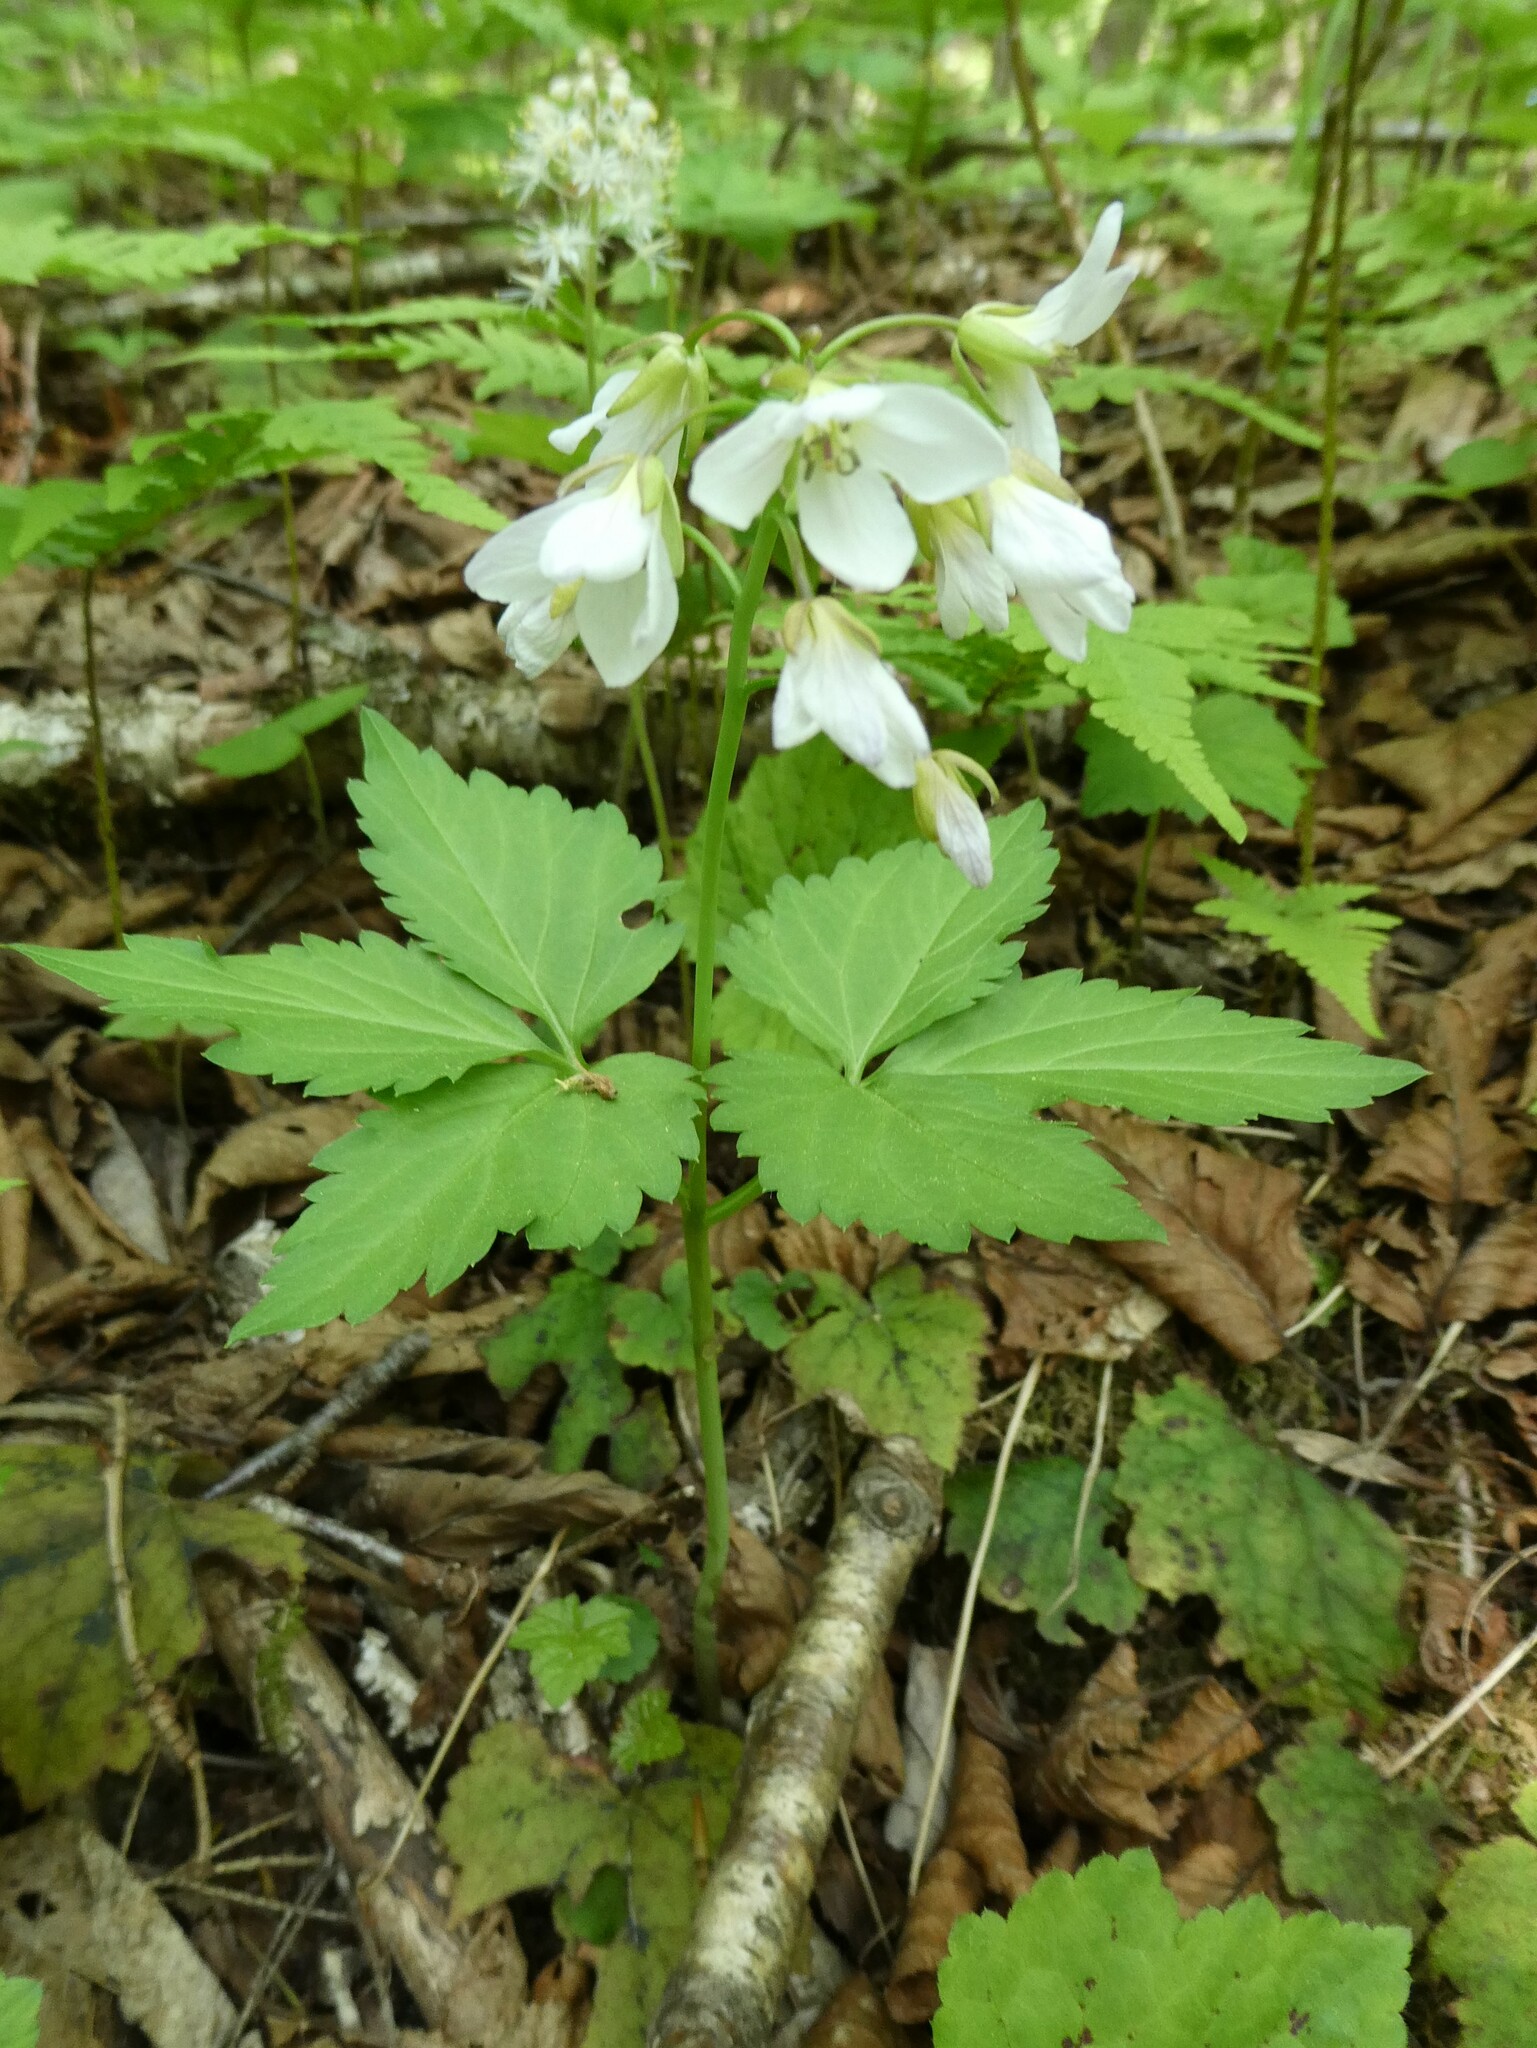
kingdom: Plantae
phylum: Tracheophyta
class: Magnoliopsida
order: Brassicales
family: Brassicaceae
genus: Cardamine
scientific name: Cardamine diphylla
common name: Broad-leaved toothwort
